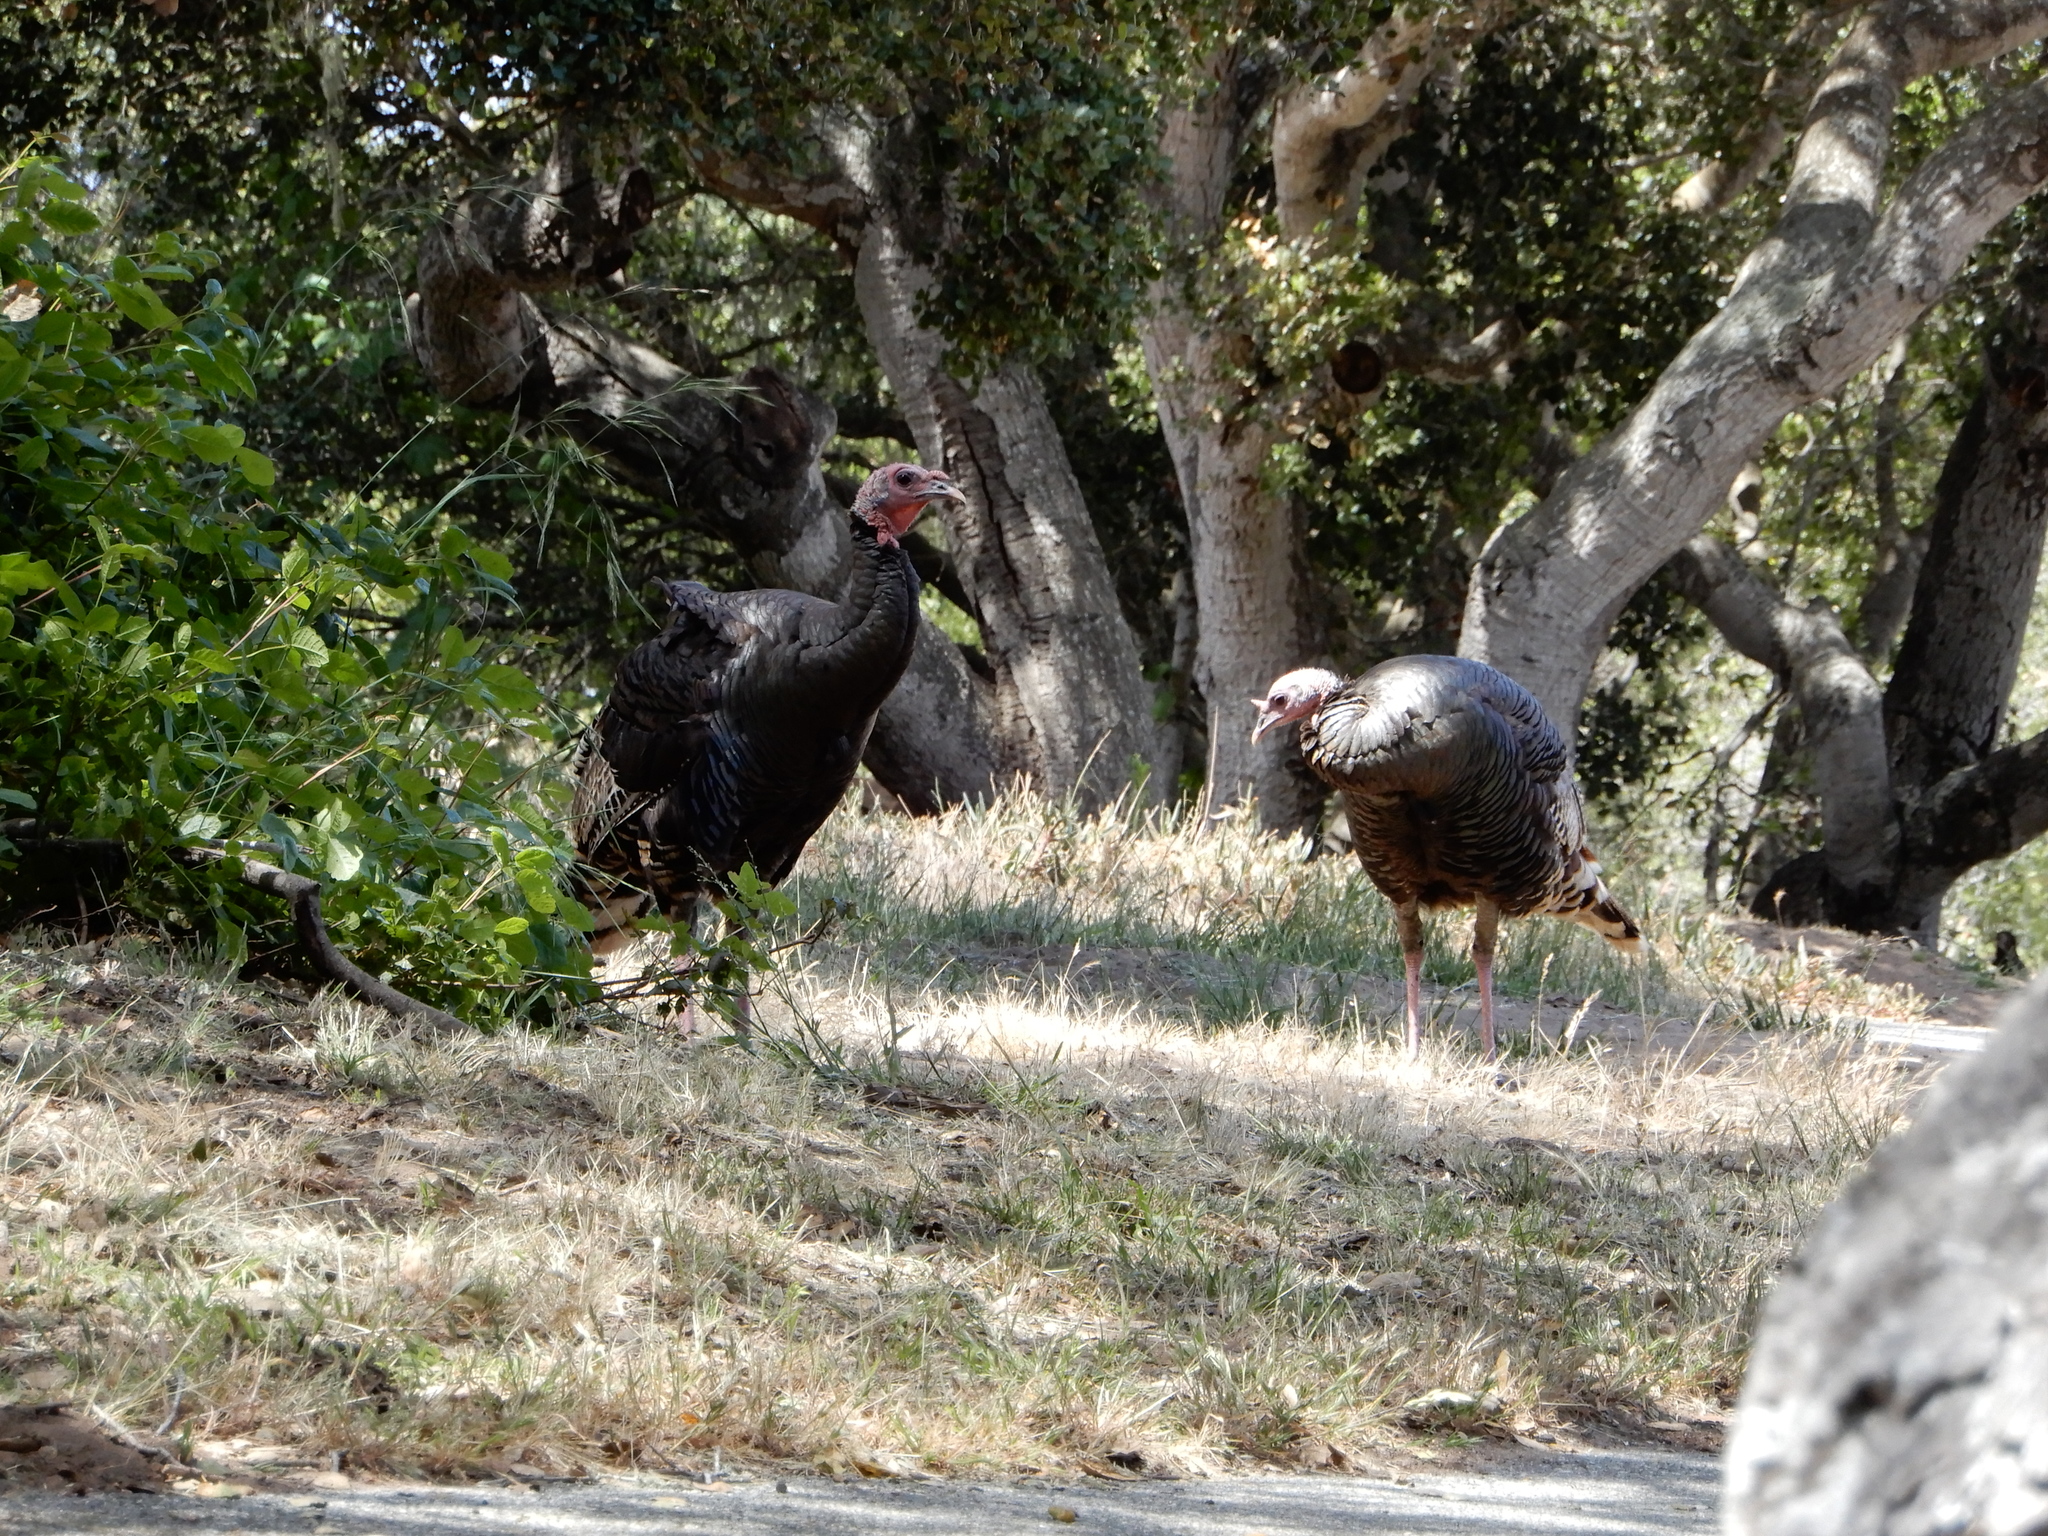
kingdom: Animalia
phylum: Chordata
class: Aves
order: Galliformes
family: Phasianidae
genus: Meleagris
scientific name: Meleagris gallopavo
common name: Wild turkey
